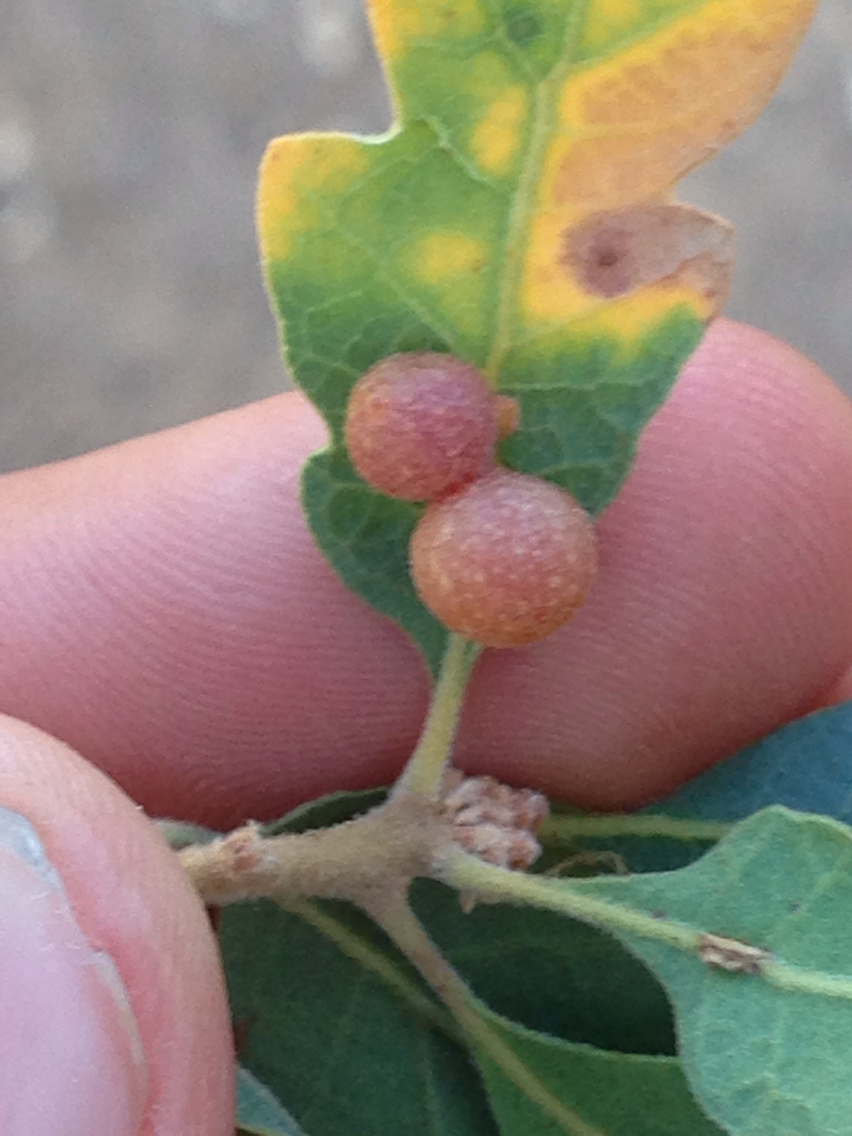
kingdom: Animalia
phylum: Arthropoda
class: Insecta
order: Hymenoptera
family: Cynipidae
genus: Andricus
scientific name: Andricus
